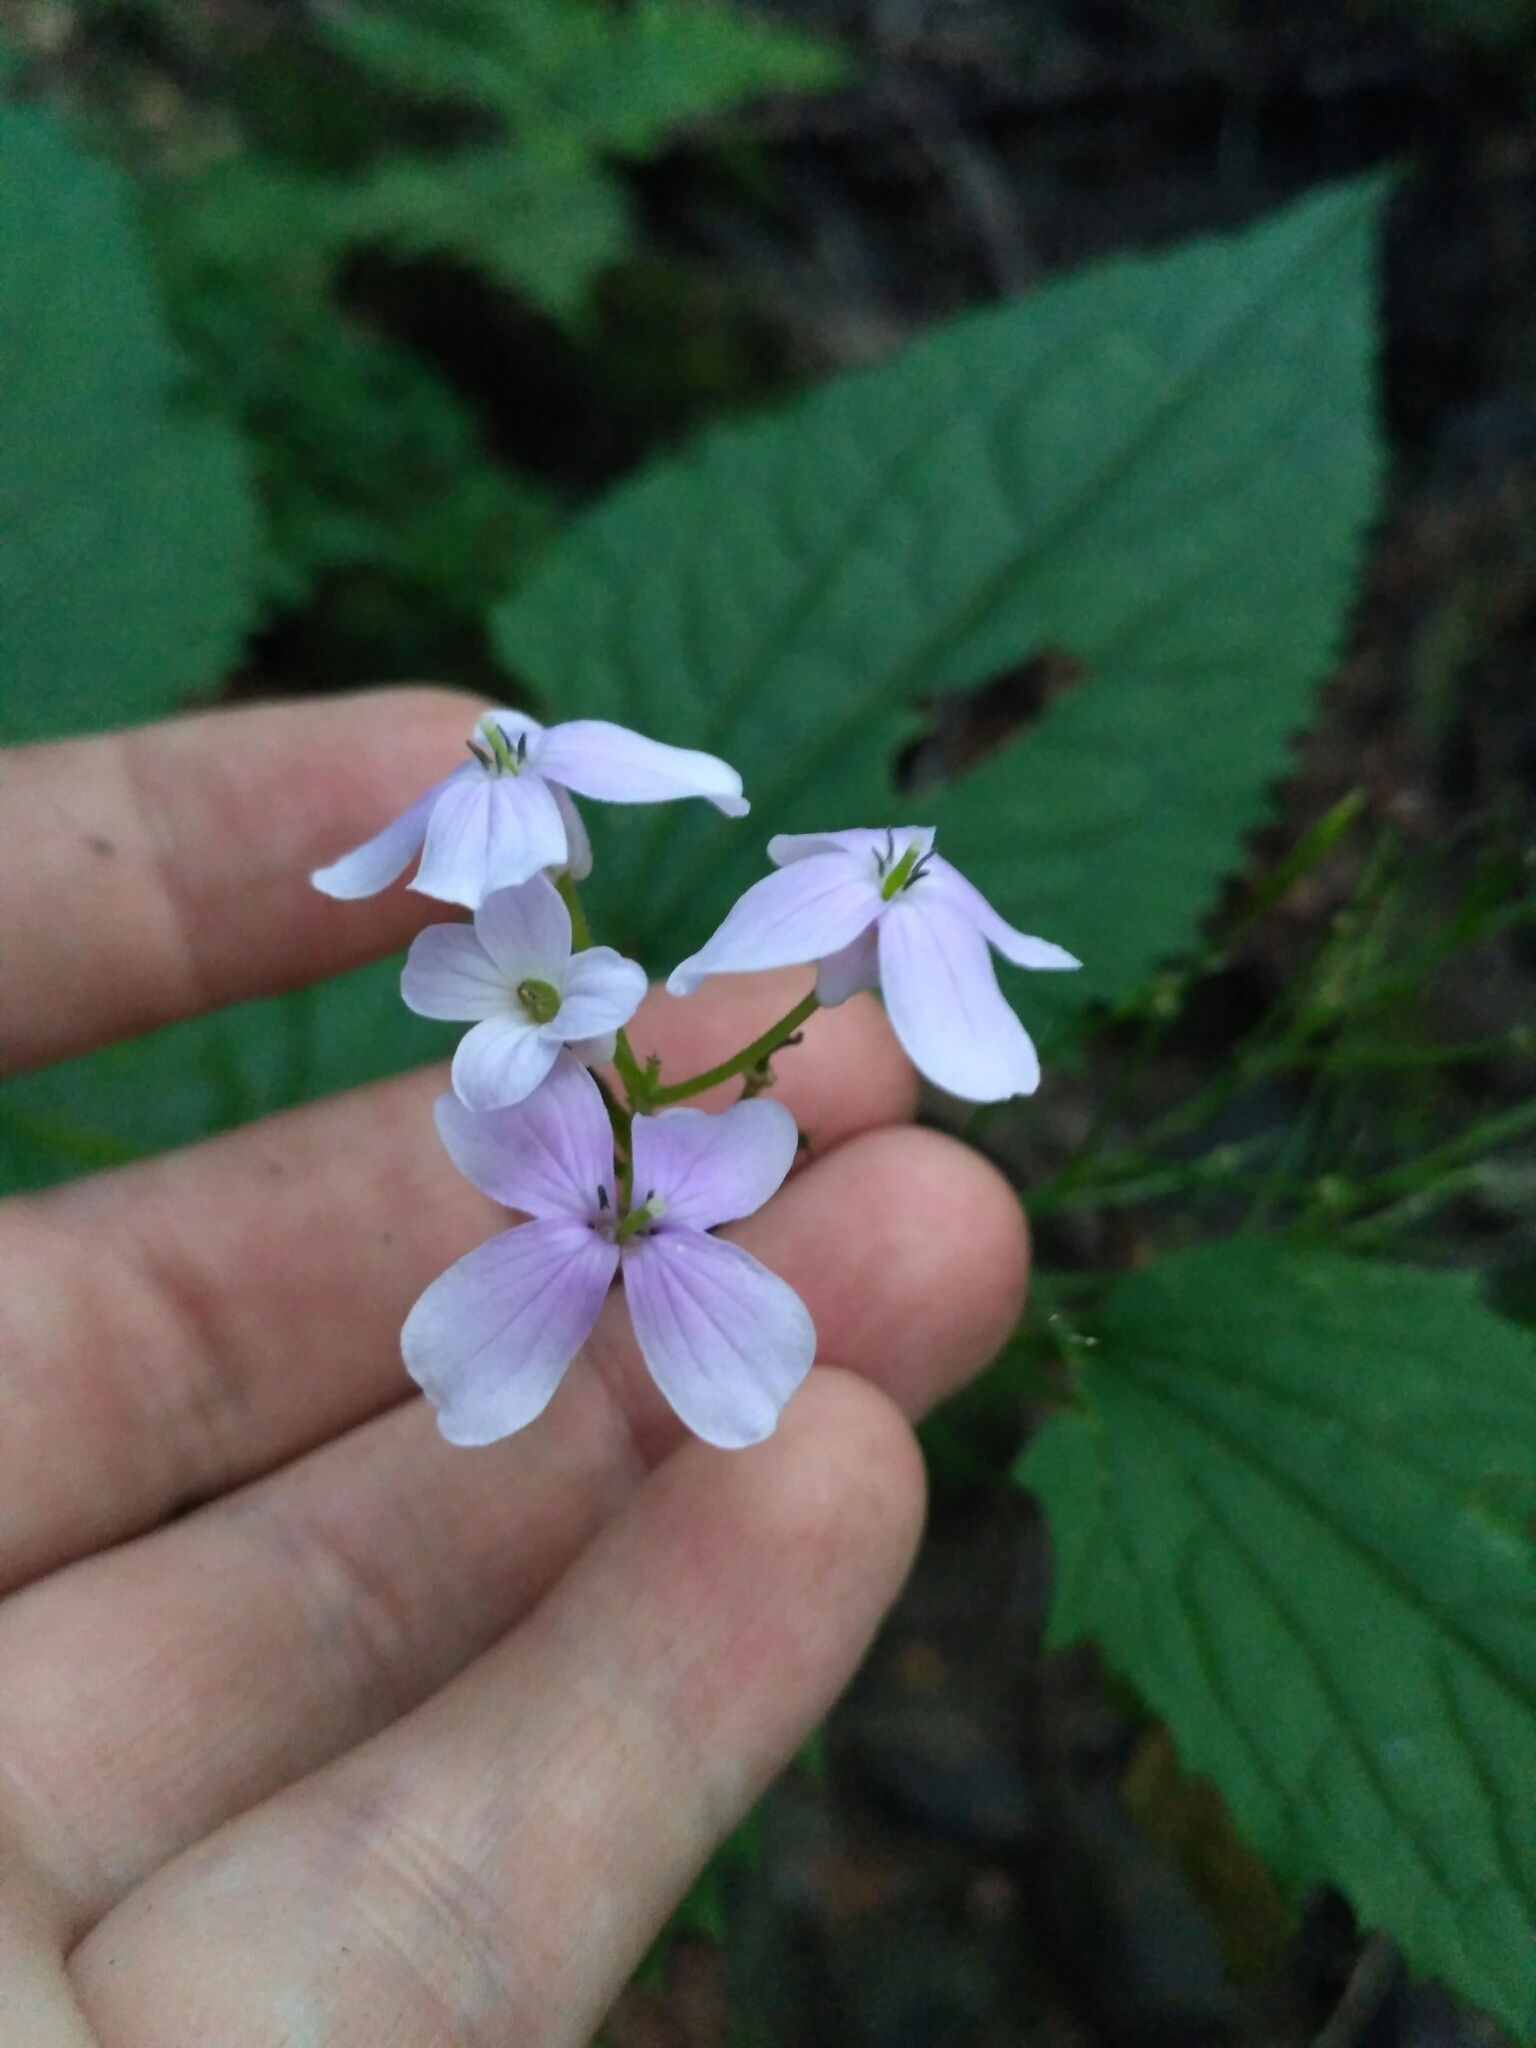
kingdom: Plantae
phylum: Tracheophyta
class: Magnoliopsida
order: Brassicales
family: Brassicaceae
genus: Lunaria
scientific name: Lunaria rediviva
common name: Perennial honesty
